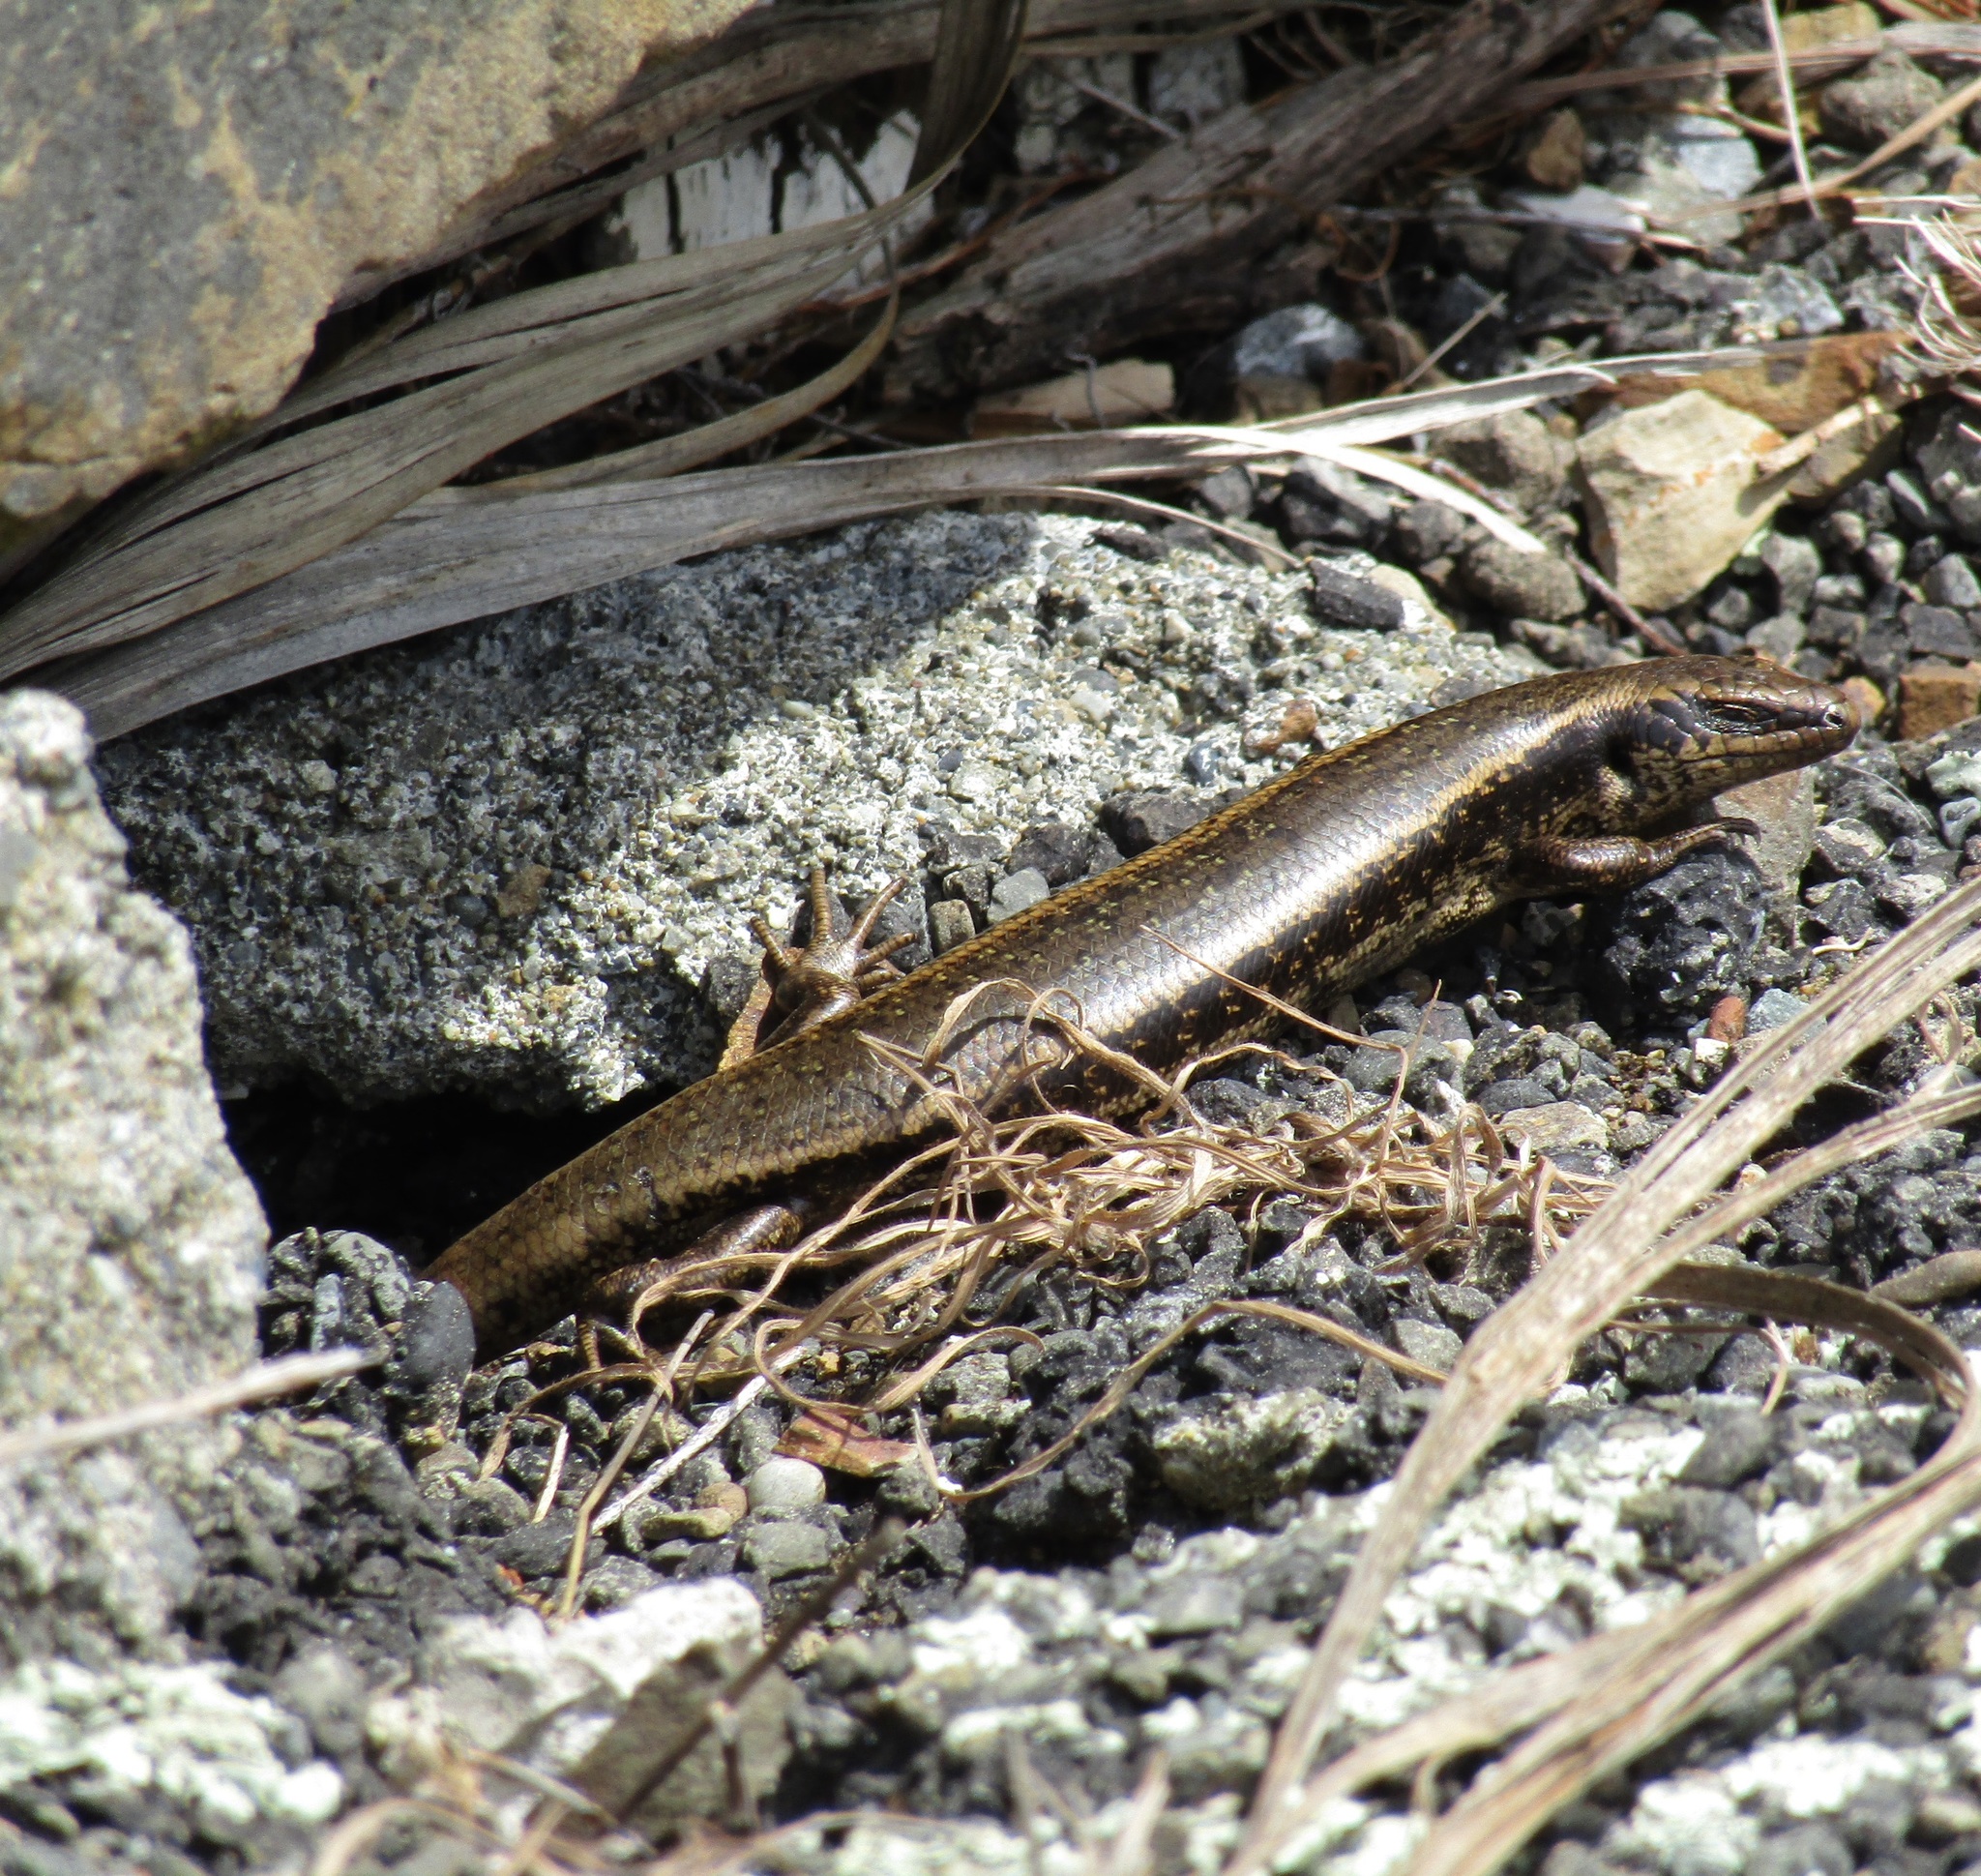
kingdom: Animalia
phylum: Chordata
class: Squamata
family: Scincidae
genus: Oligosoma
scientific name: Oligosoma kokowai
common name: Northern spotted skink
